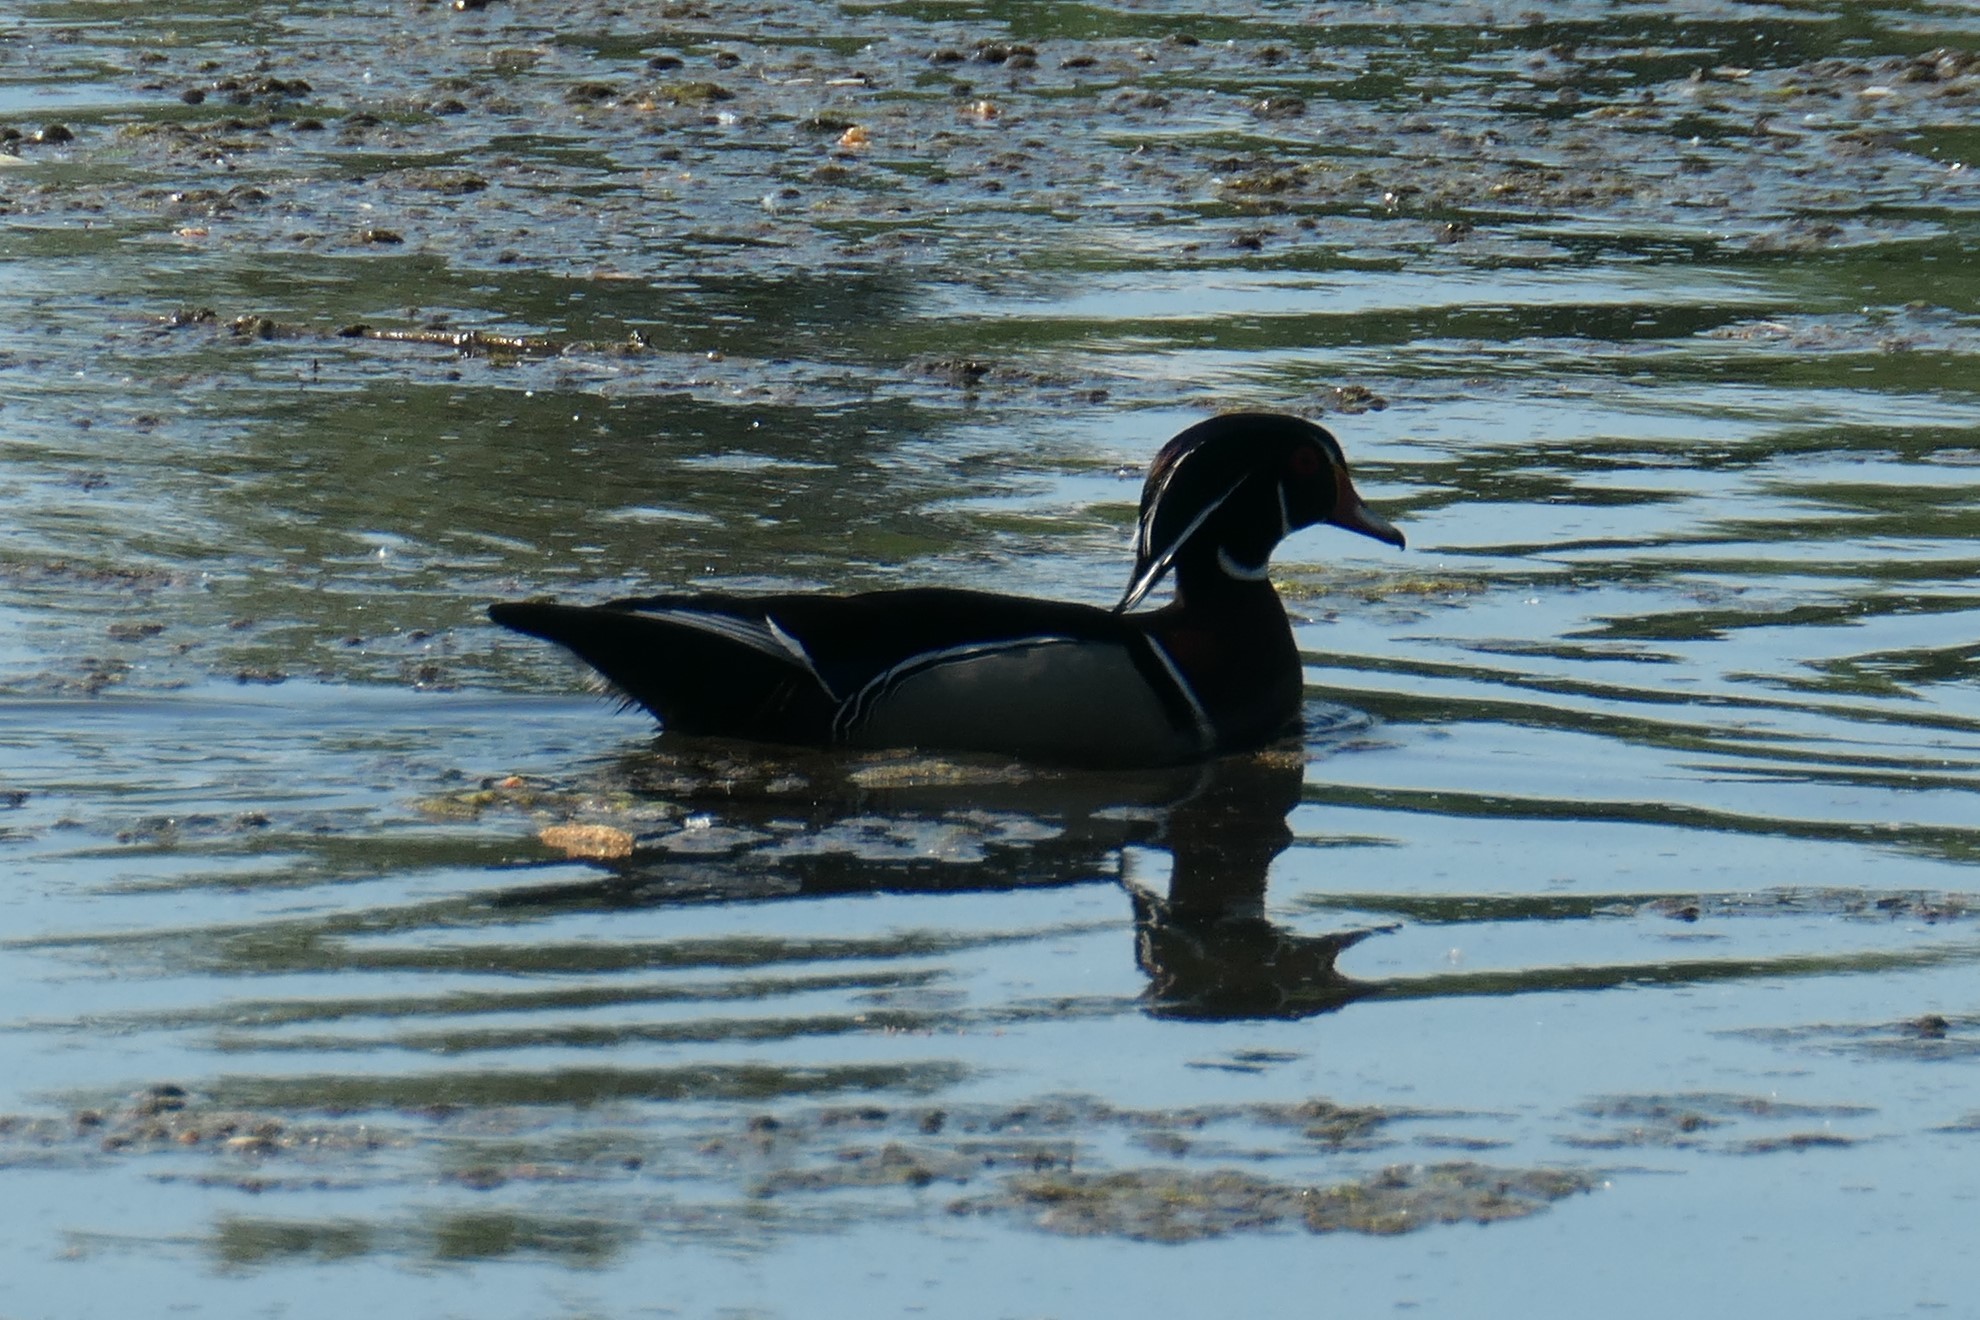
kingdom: Animalia
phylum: Chordata
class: Aves
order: Anseriformes
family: Anatidae
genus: Aix
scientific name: Aix sponsa
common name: Wood duck
